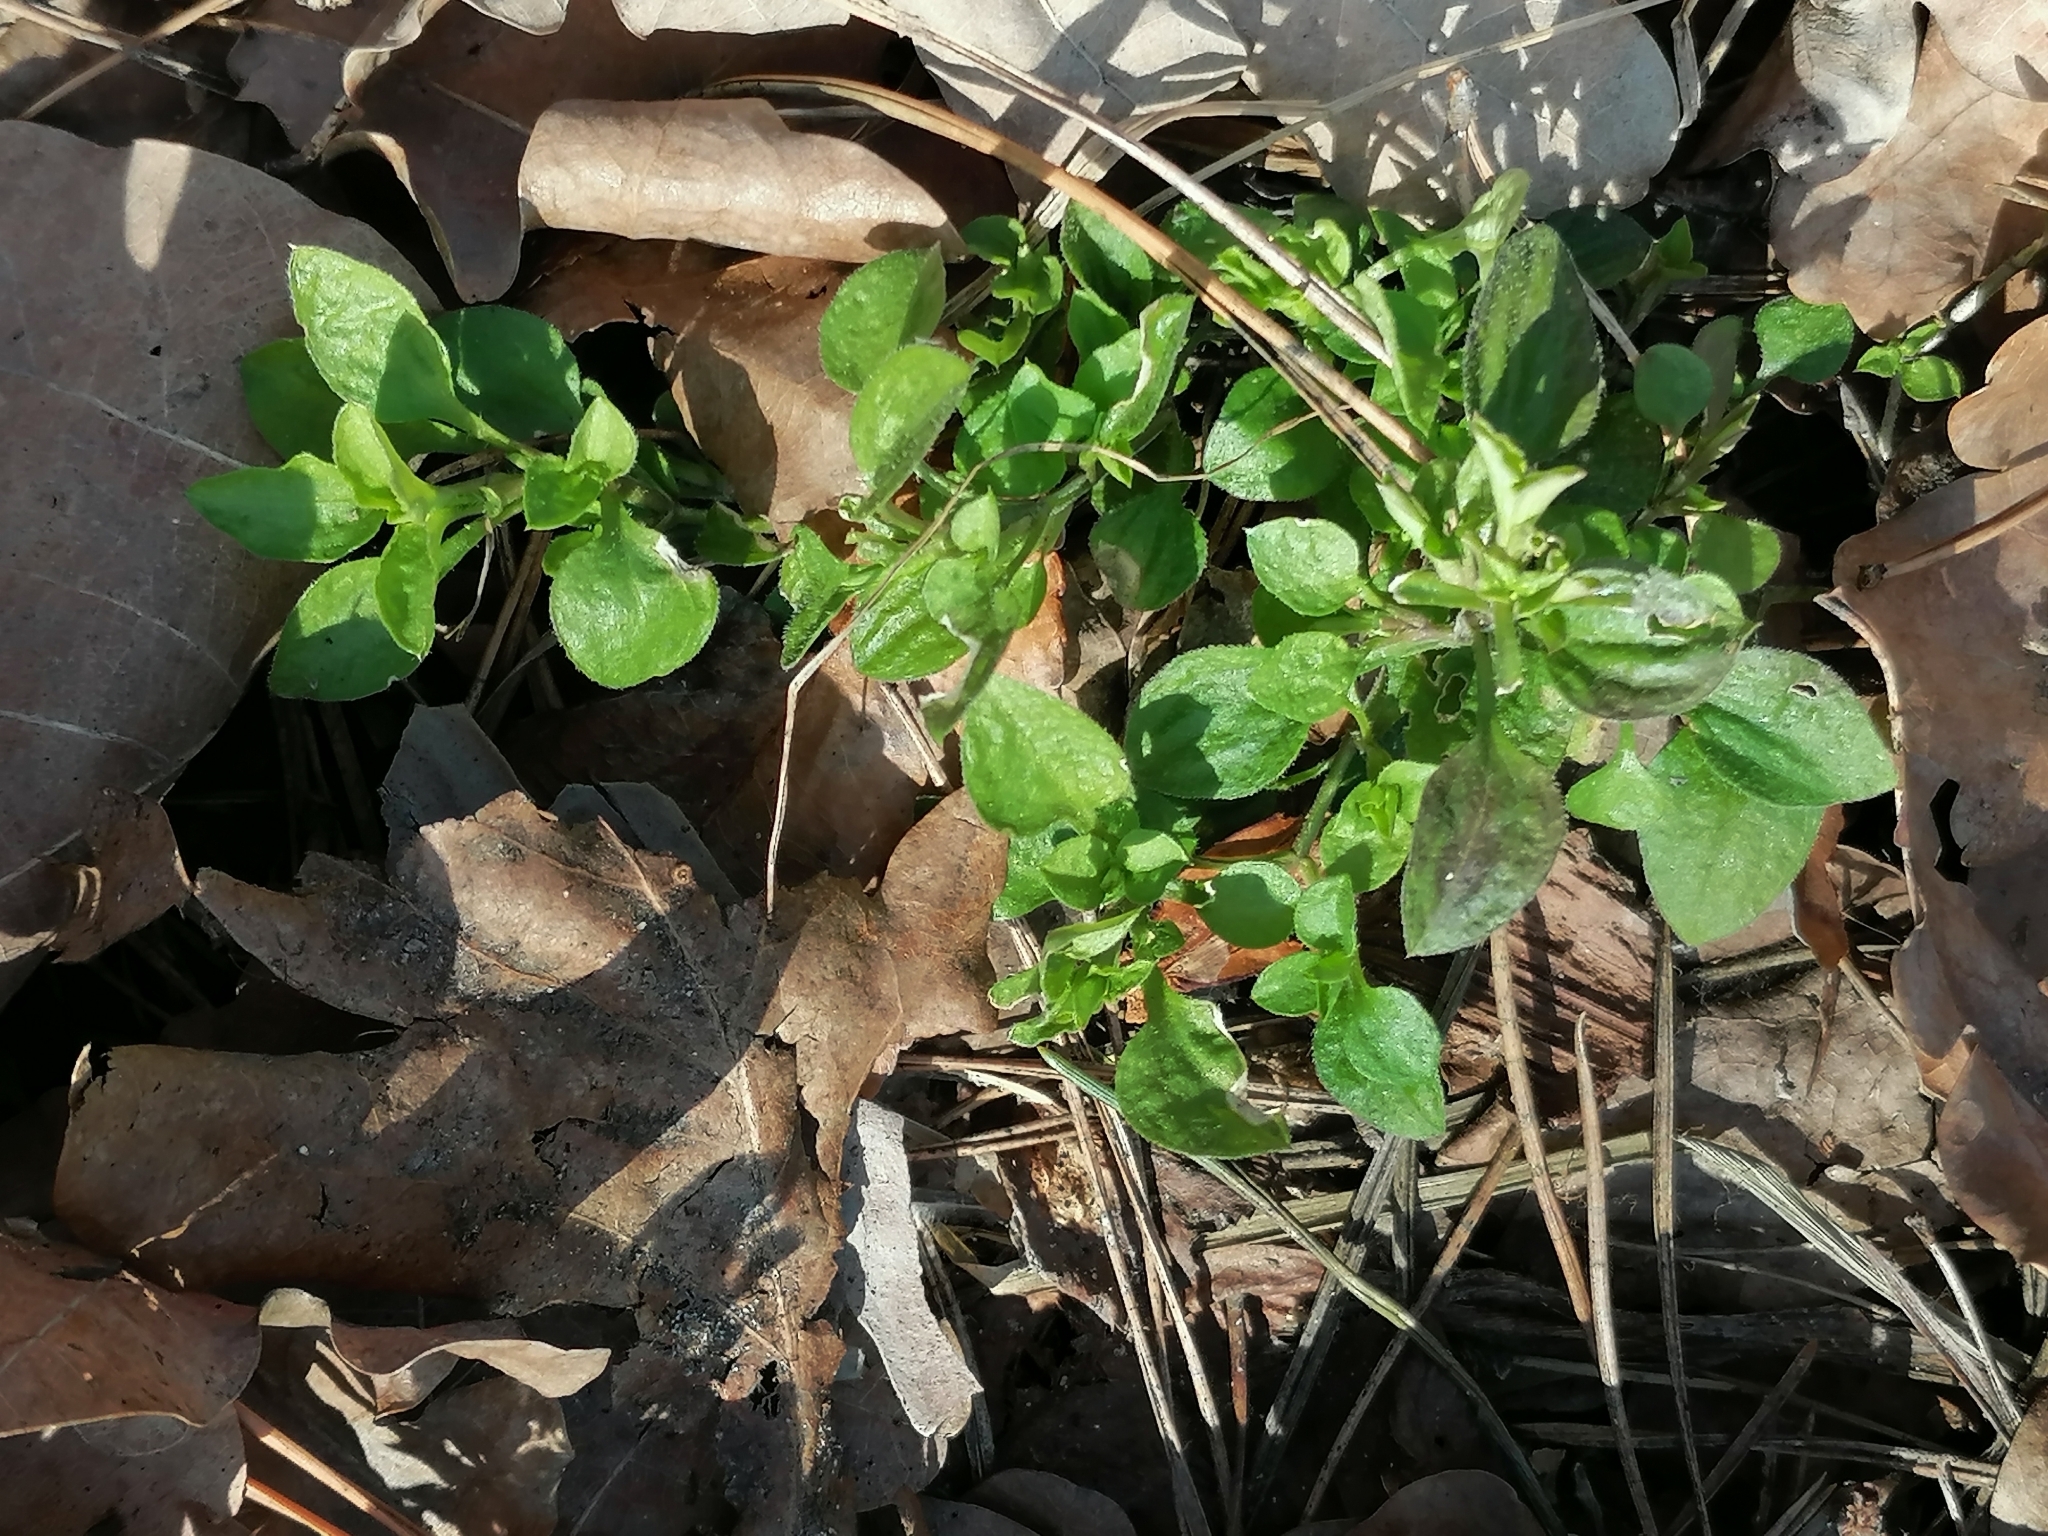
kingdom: Plantae
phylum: Tracheophyta
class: Magnoliopsida
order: Caryophyllales
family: Caryophyllaceae
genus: Moehringia
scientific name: Moehringia trinervia
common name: Three-nerved sandwort
